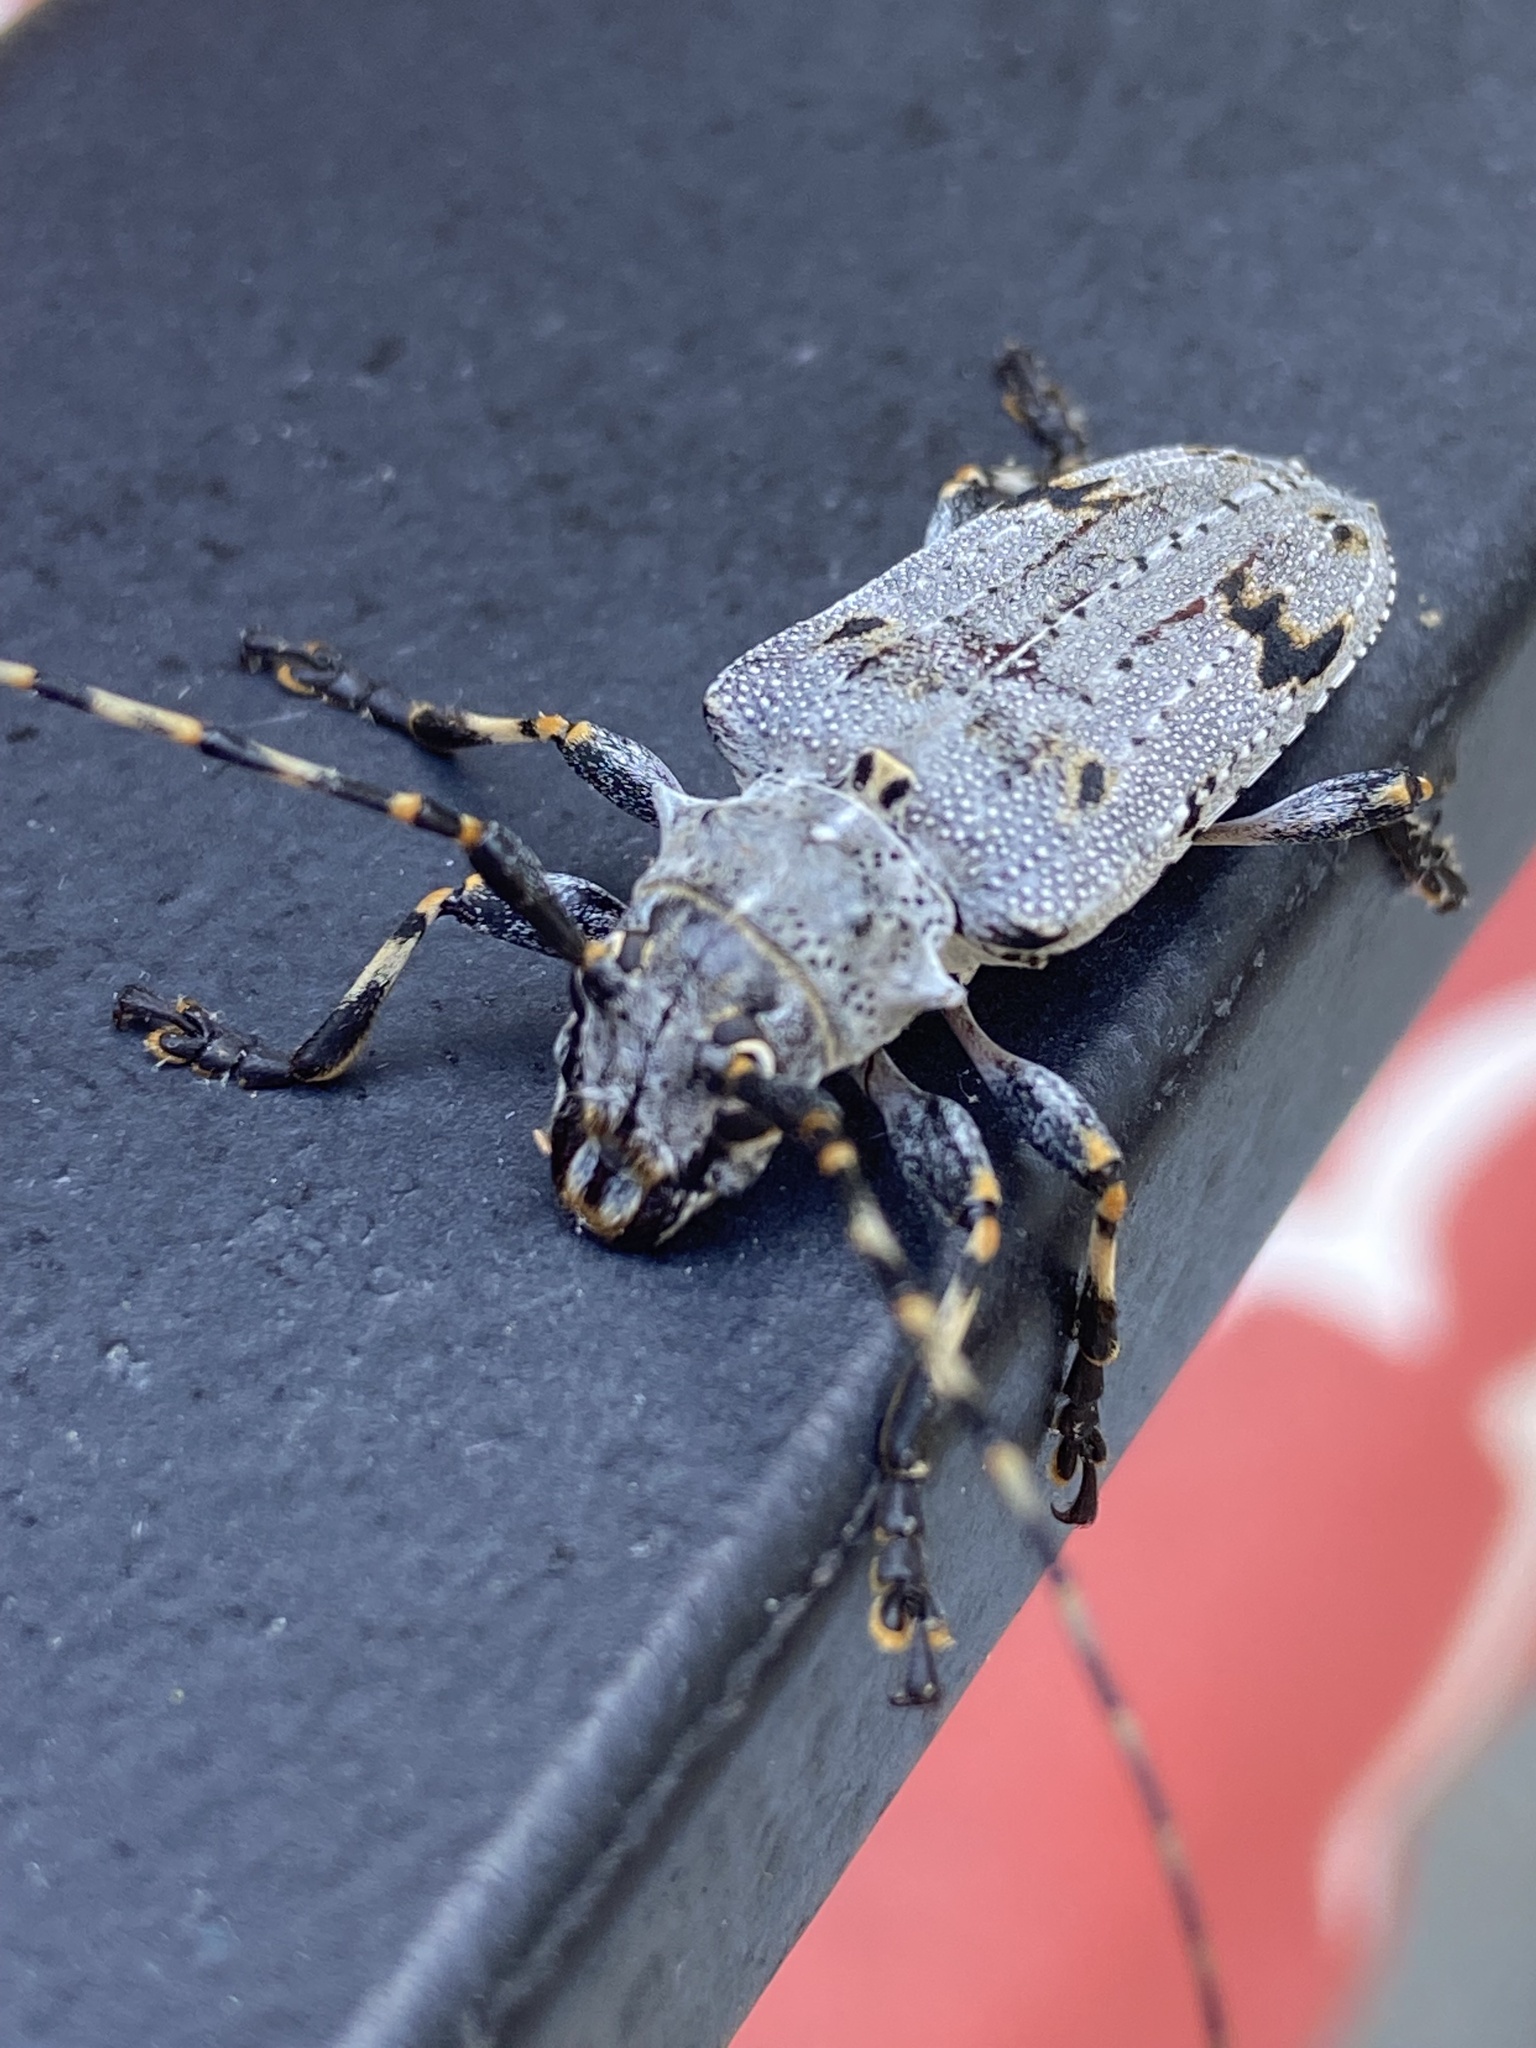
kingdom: Animalia
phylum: Arthropoda
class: Insecta
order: Coleoptera
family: Cerambycidae
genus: Aegomorphus
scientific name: Aegomorphus morrisi
